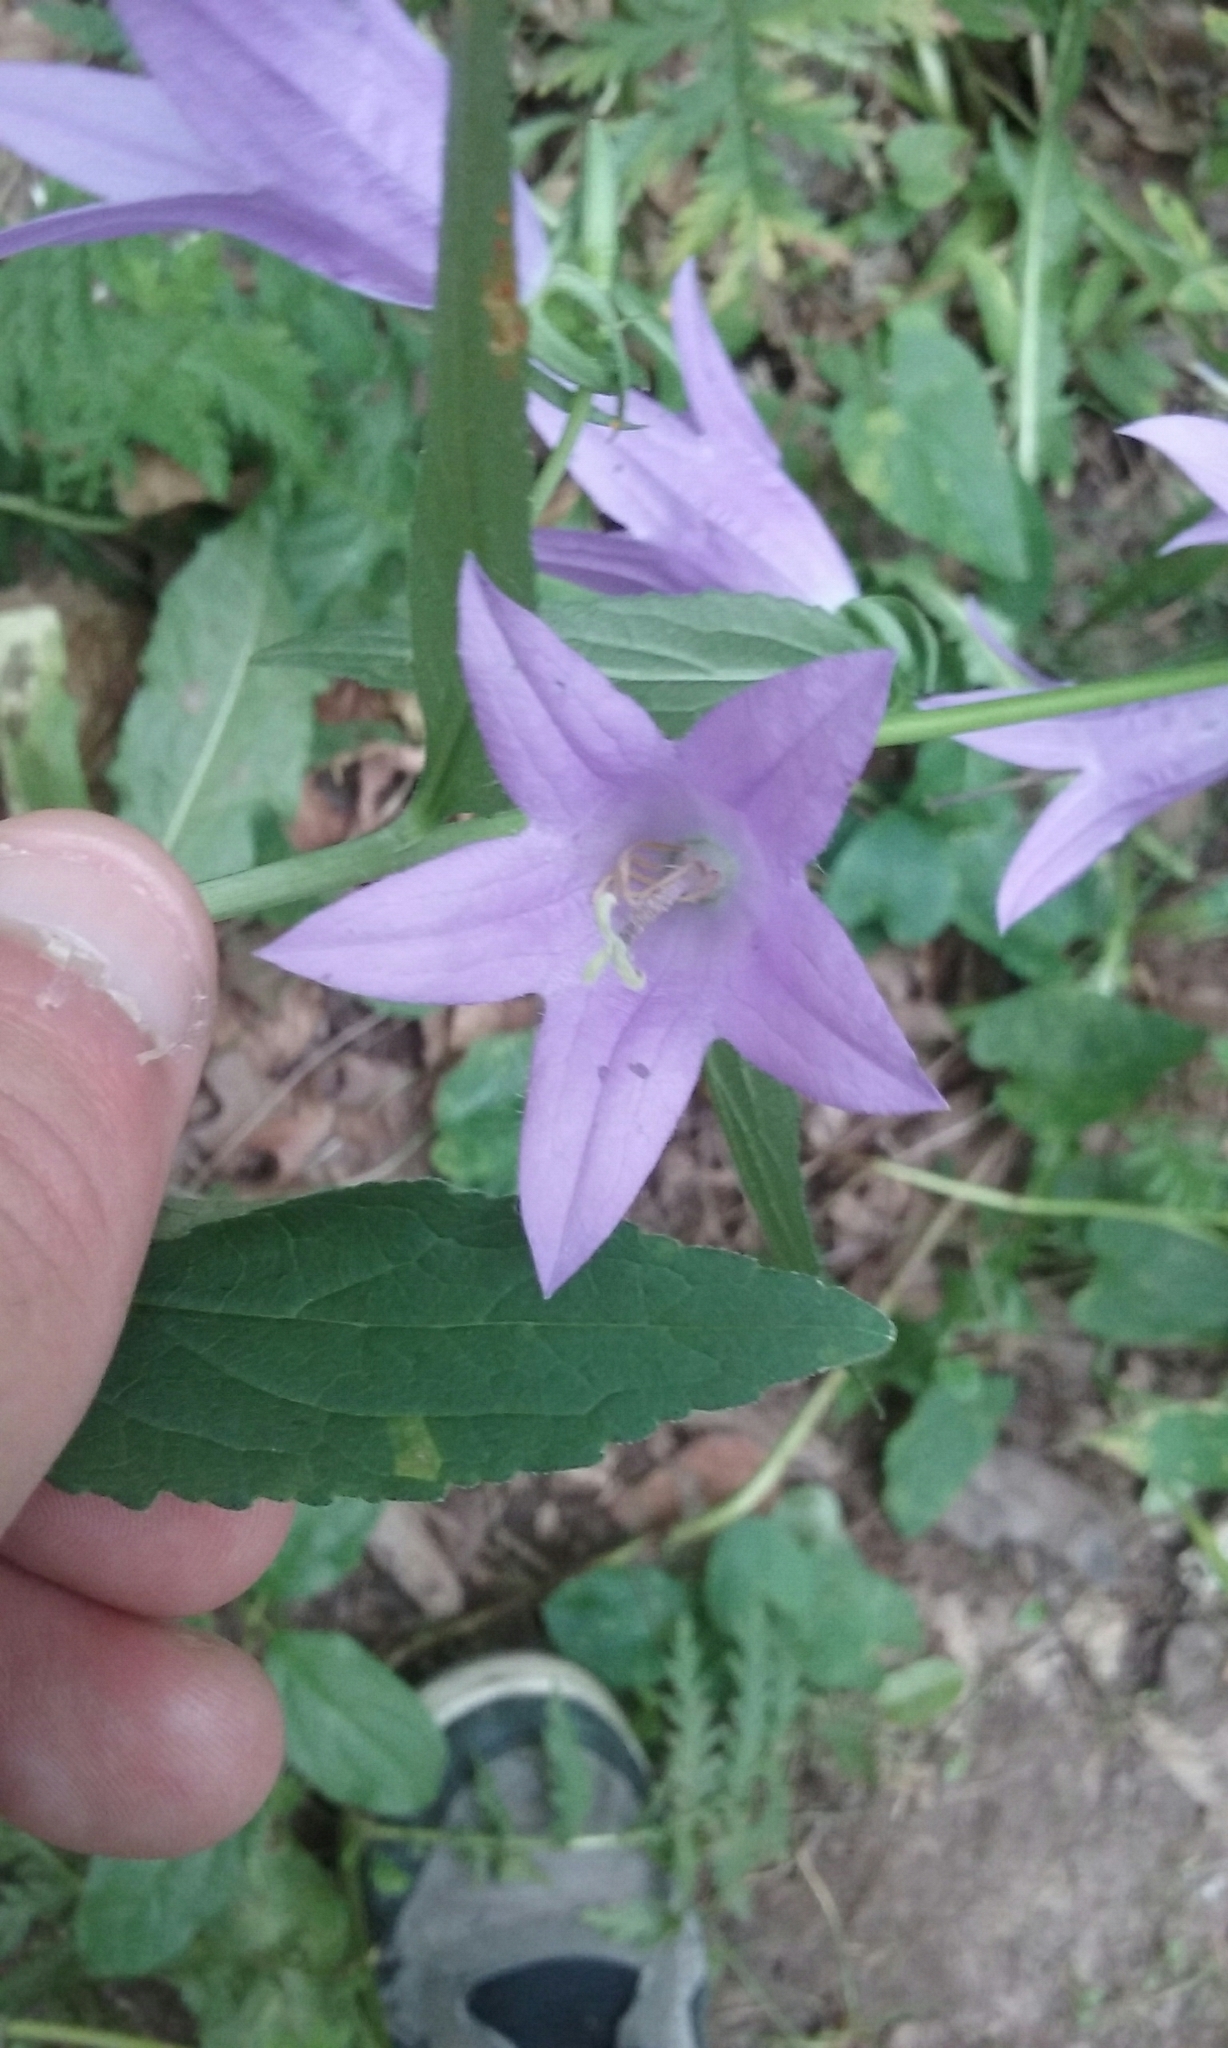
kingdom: Plantae
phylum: Tracheophyta
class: Magnoliopsida
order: Asterales
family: Campanulaceae
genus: Campanula
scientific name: Campanula rapunculoides
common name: Creeping bellflower
